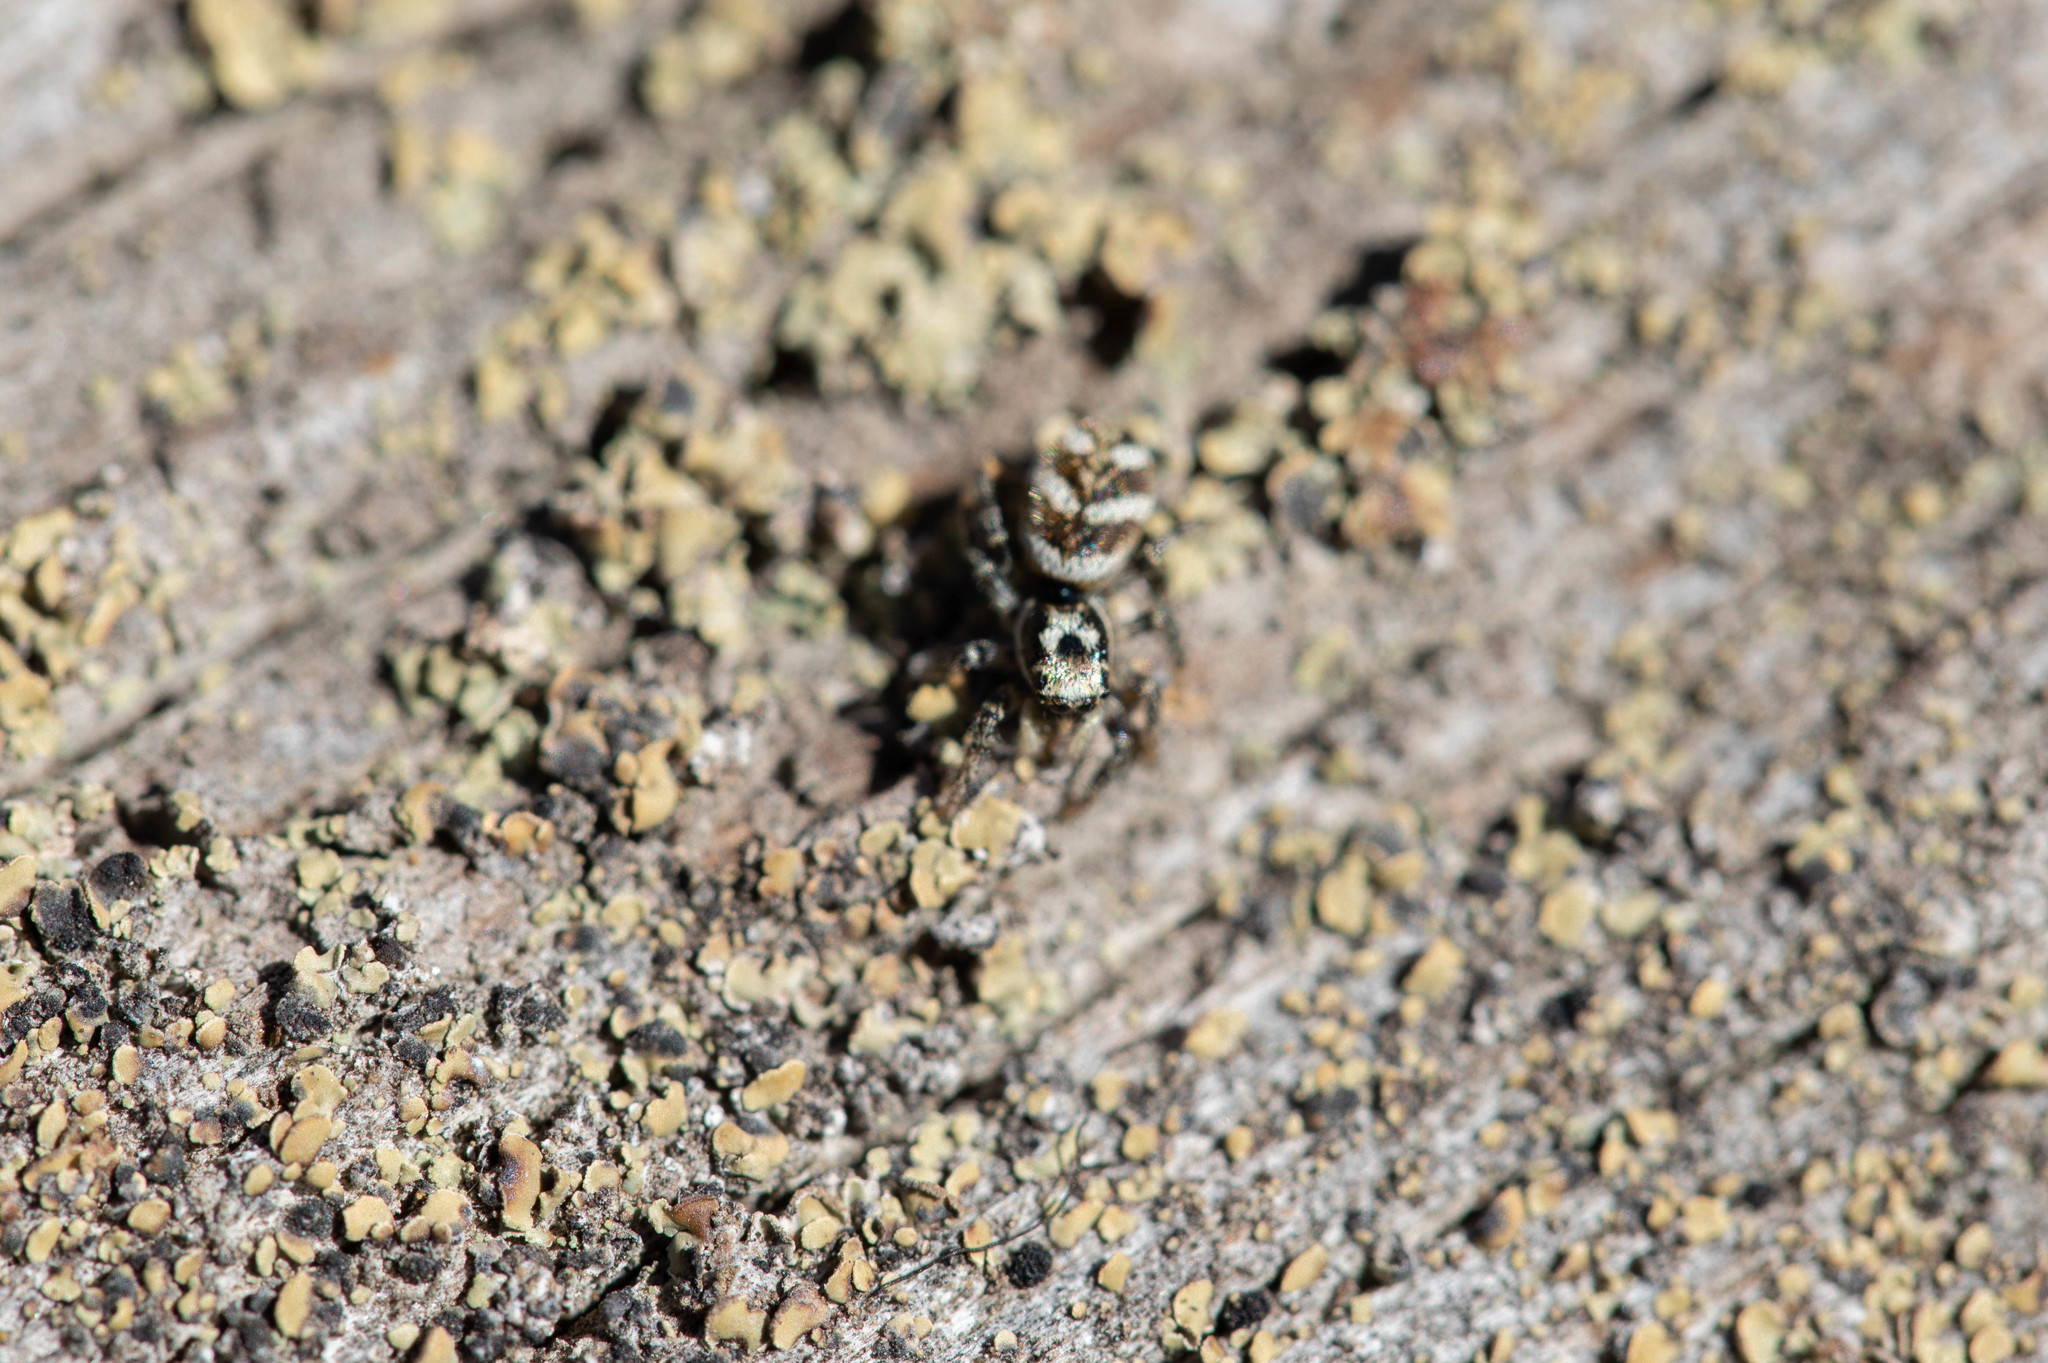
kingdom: Animalia
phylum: Arthropoda
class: Arachnida
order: Araneae
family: Salticidae
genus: Salticus
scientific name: Salticus scenicus
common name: Zebra jumper
